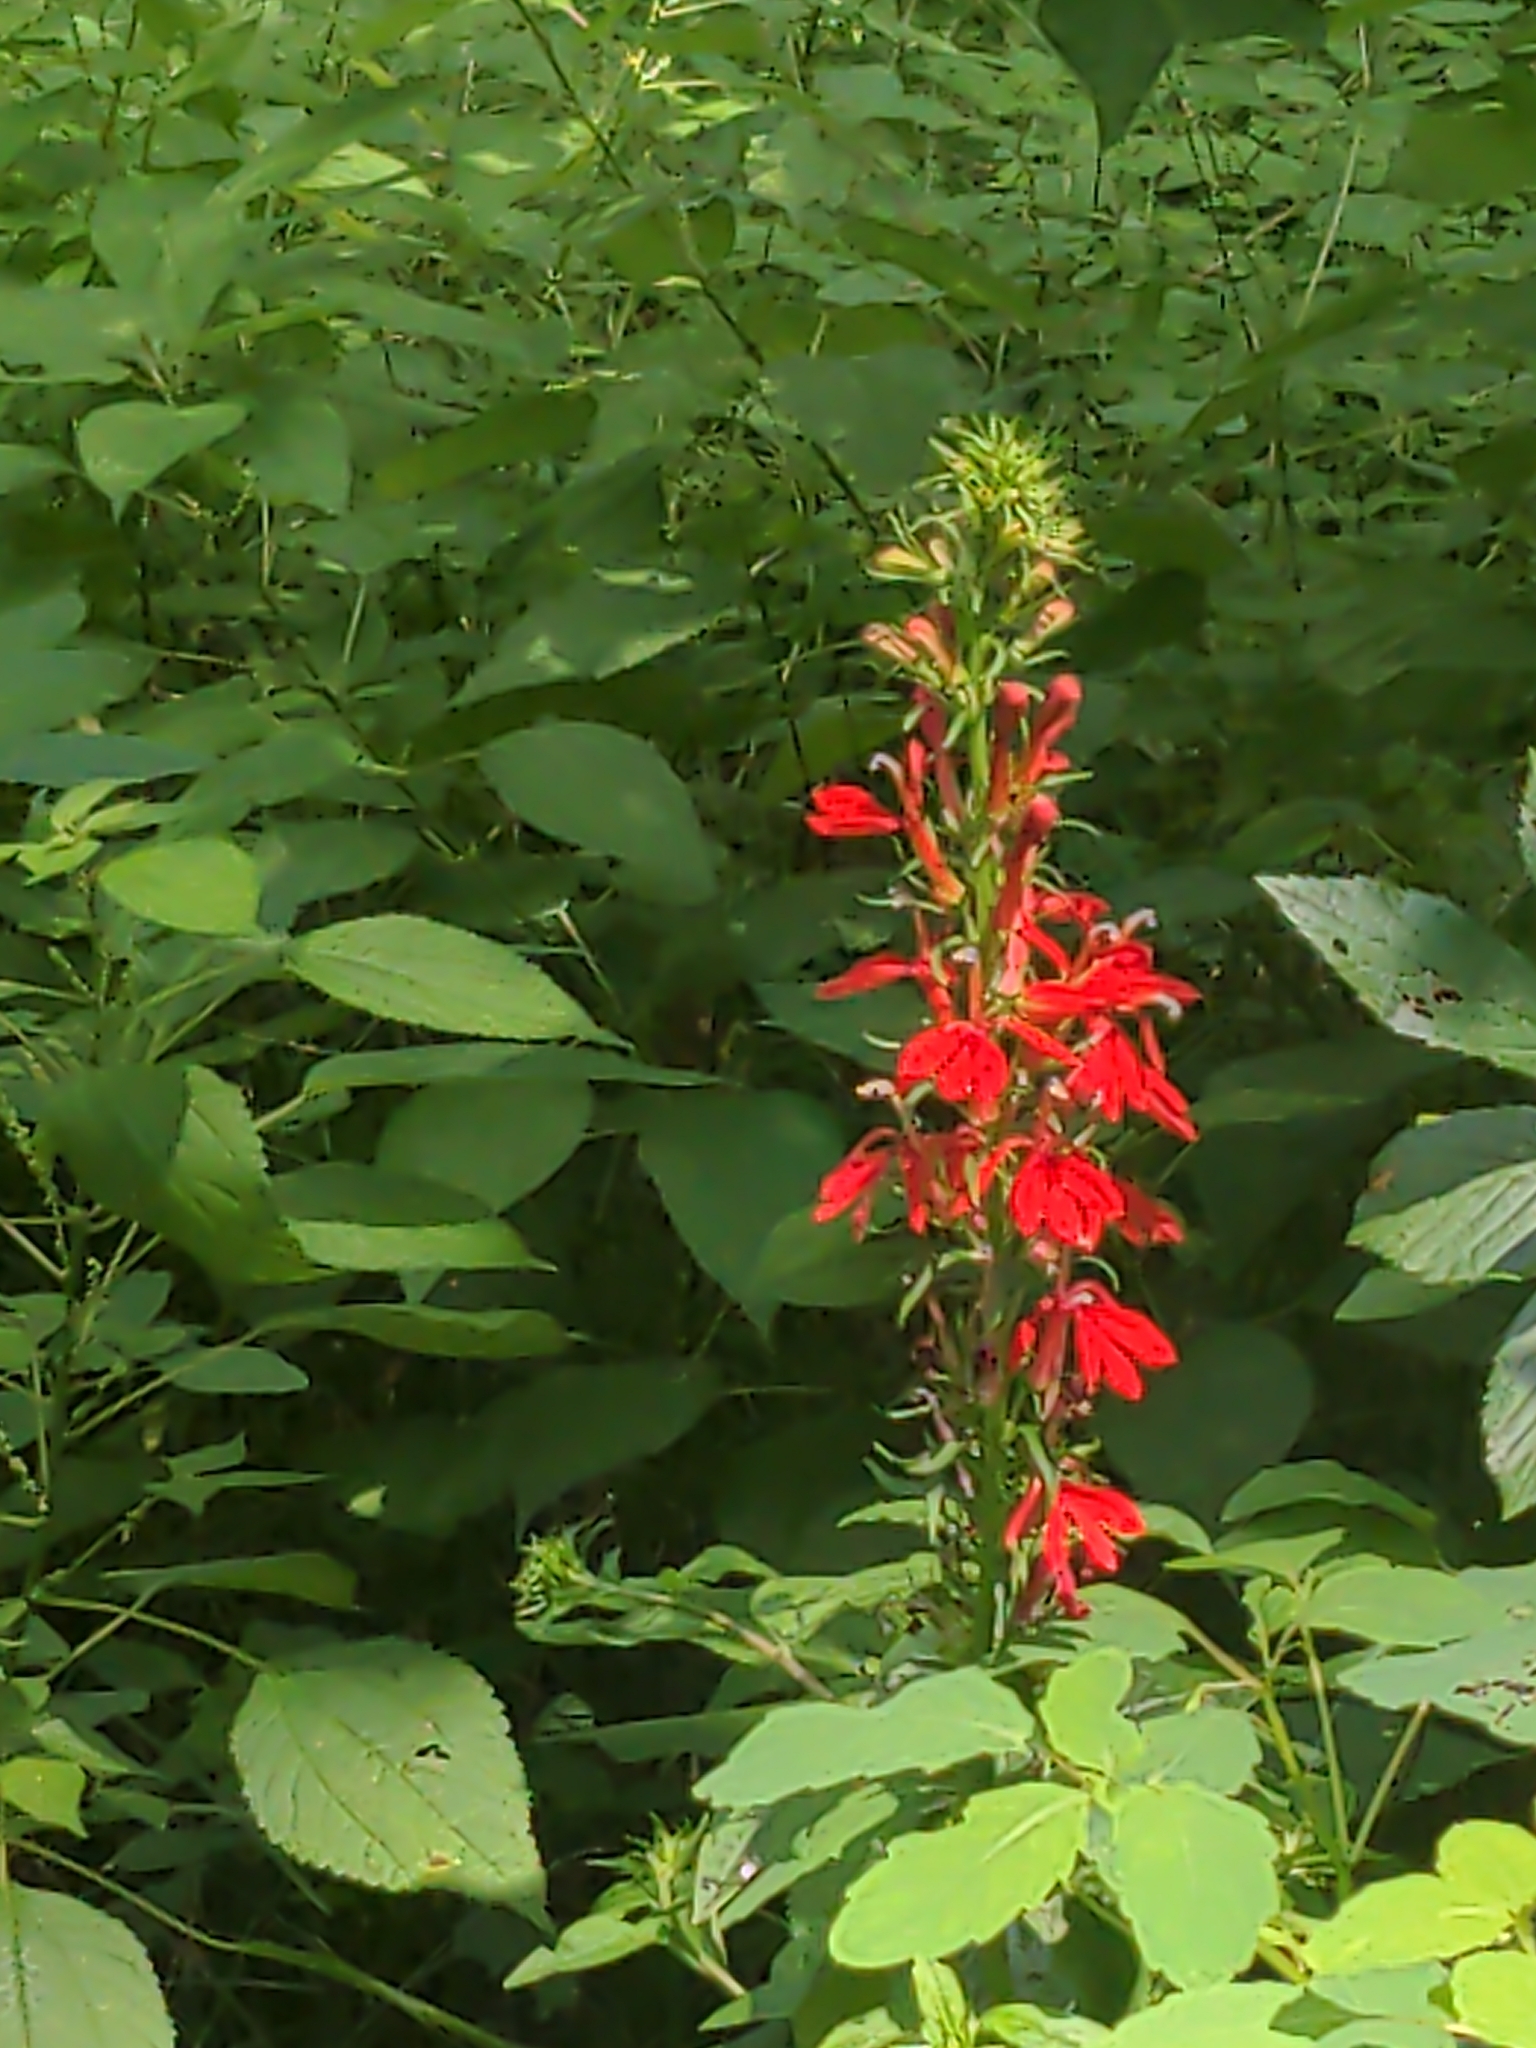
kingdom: Plantae
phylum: Tracheophyta
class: Magnoliopsida
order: Asterales
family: Campanulaceae
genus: Lobelia
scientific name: Lobelia cardinalis
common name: Cardinal flower
